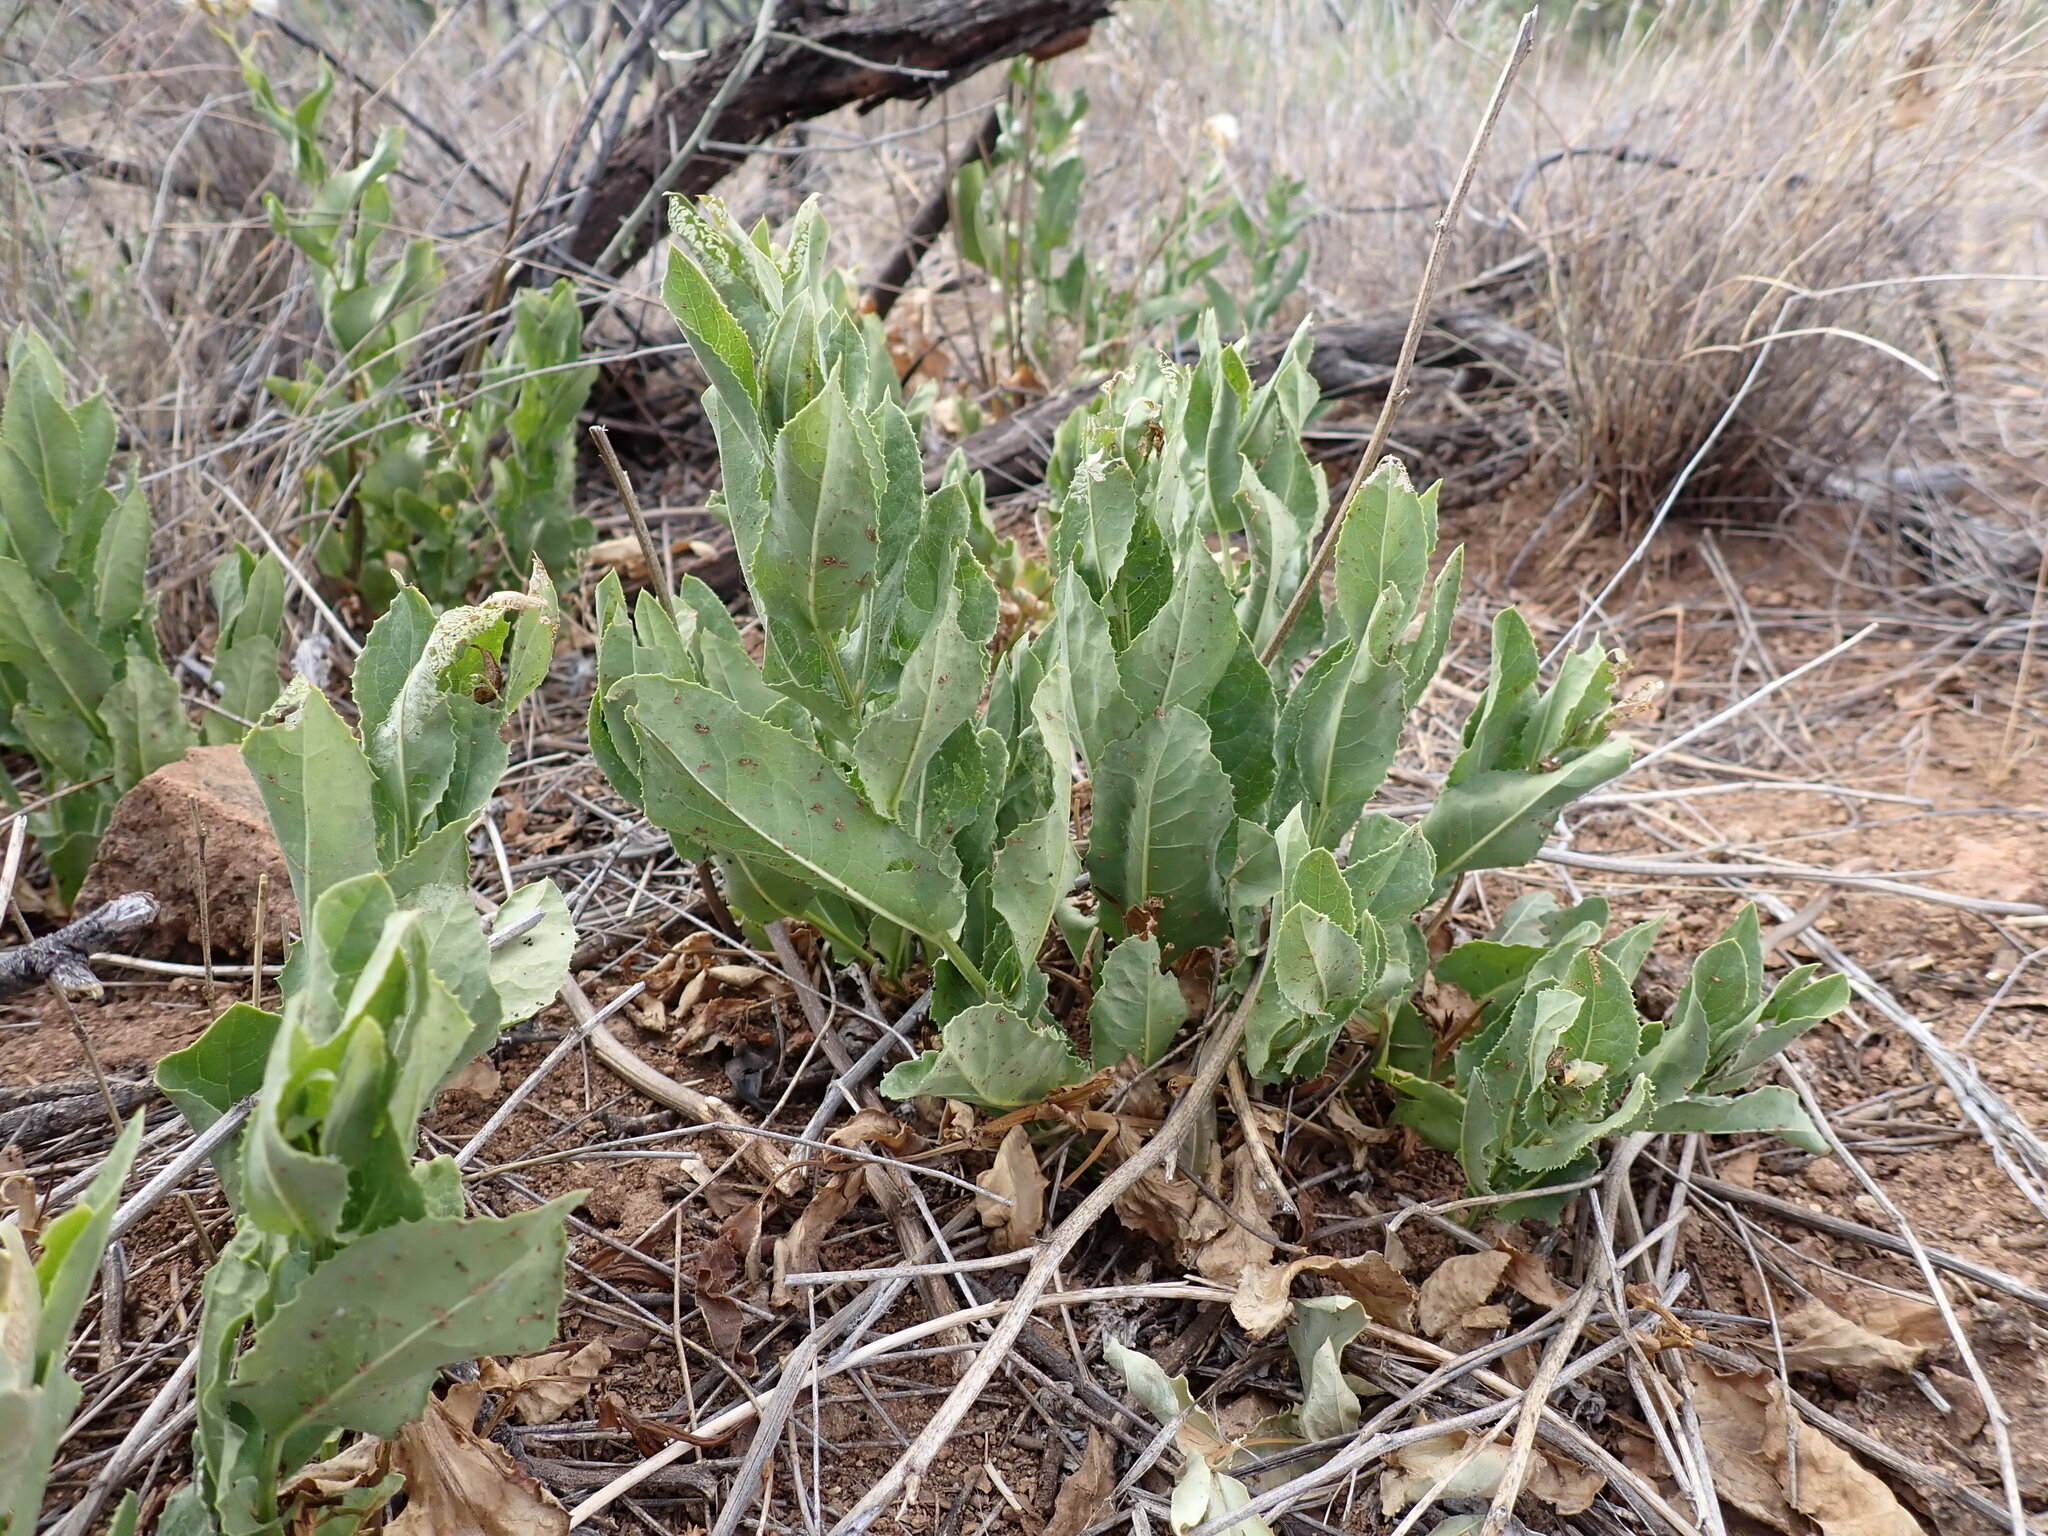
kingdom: Plantae
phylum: Tracheophyta
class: Magnoliopsida
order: Asterales
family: Asteraceae
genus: Acourtia
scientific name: Acourtia wrightii
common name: Brownfoot
